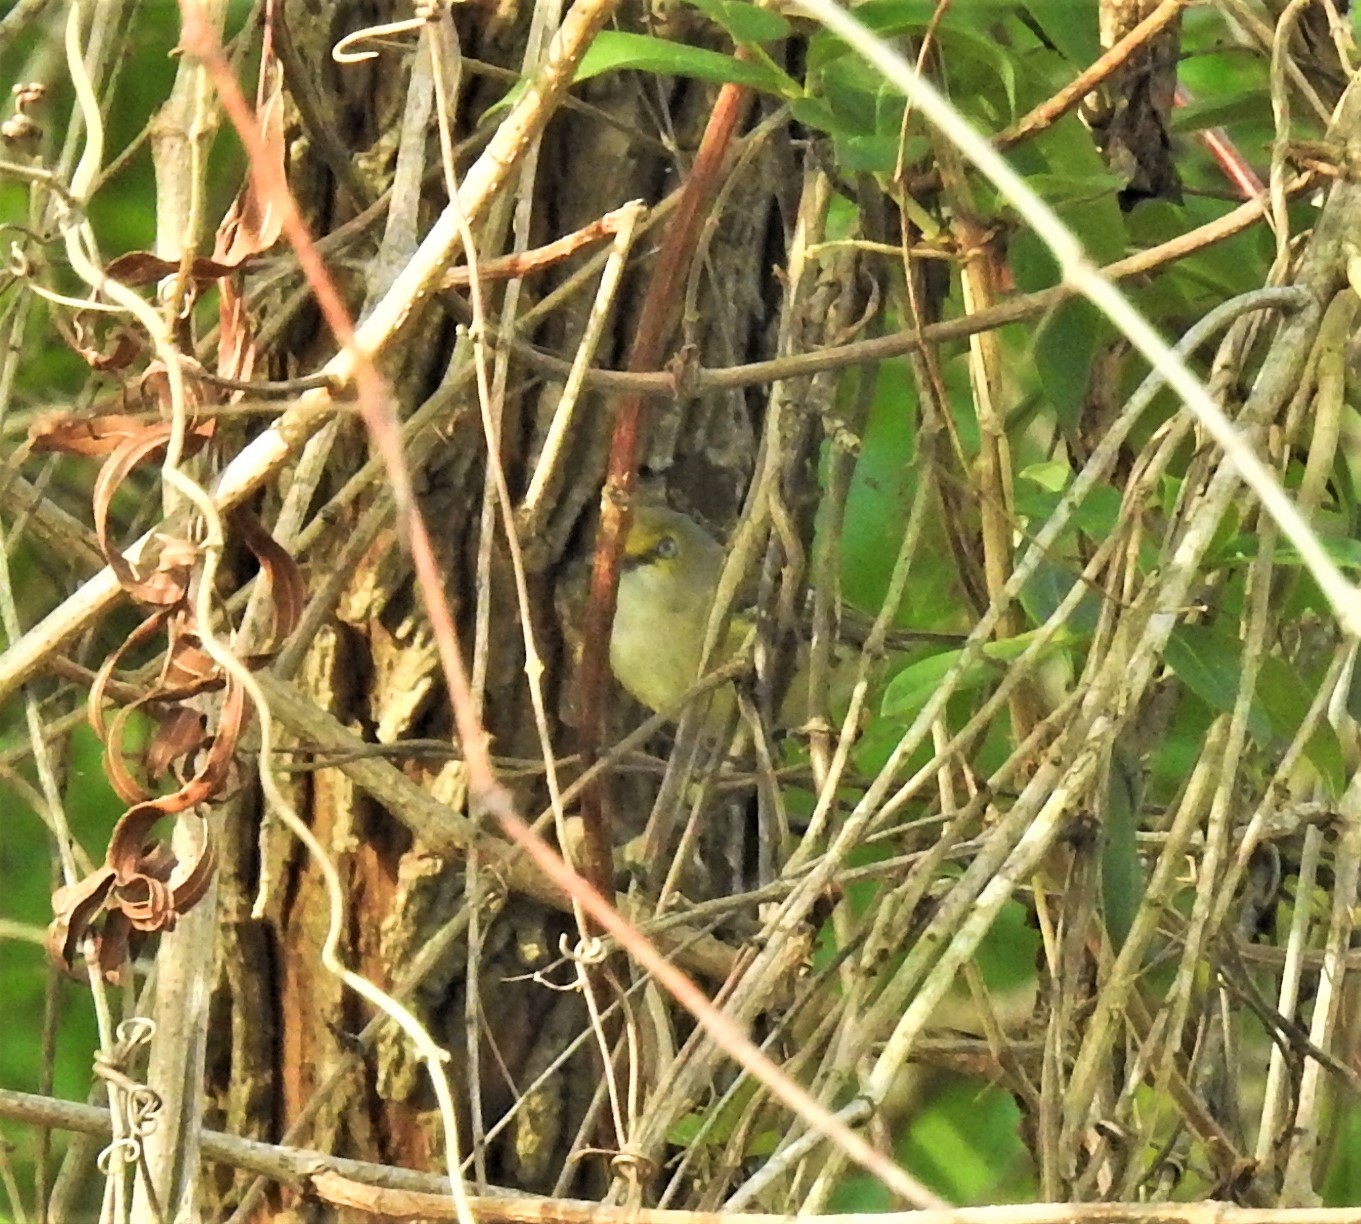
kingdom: Animalia
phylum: Chordata
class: Aves
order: Passeriformes
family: Vireonidae
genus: Vireo
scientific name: Vireo griseus
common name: White-eyed vireo
